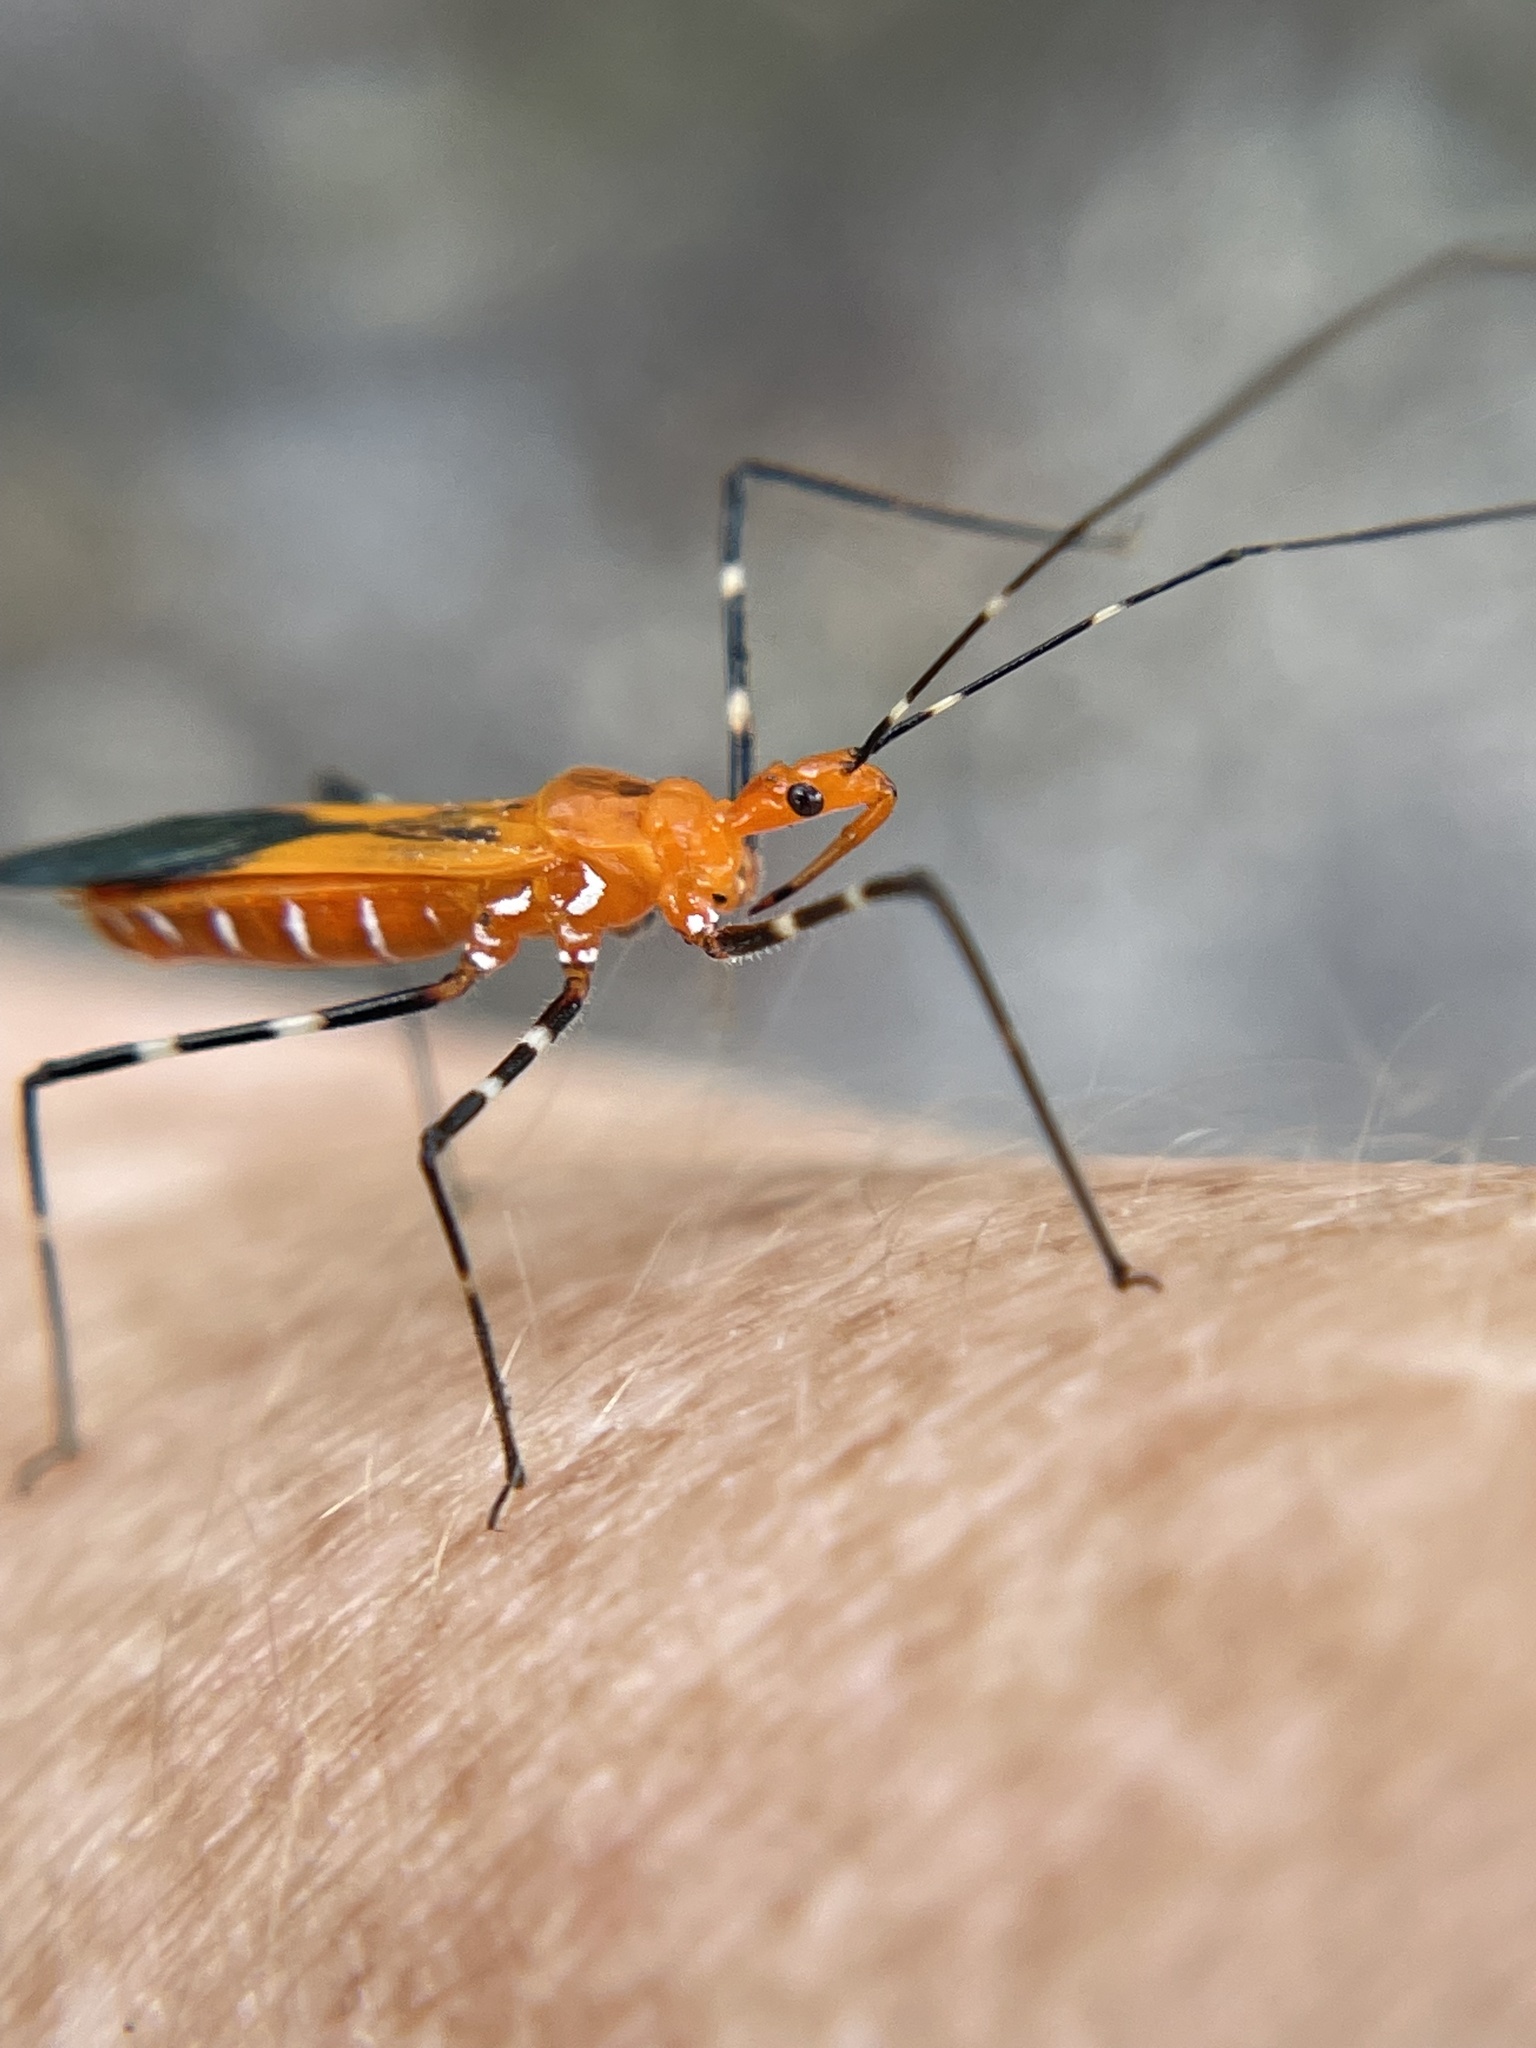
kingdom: Animalia
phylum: Arthropoda
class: Insecta
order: Hemiptera
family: Reduviidae
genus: Zelus
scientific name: Zelus longipes
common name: Milkweed assassin bug
